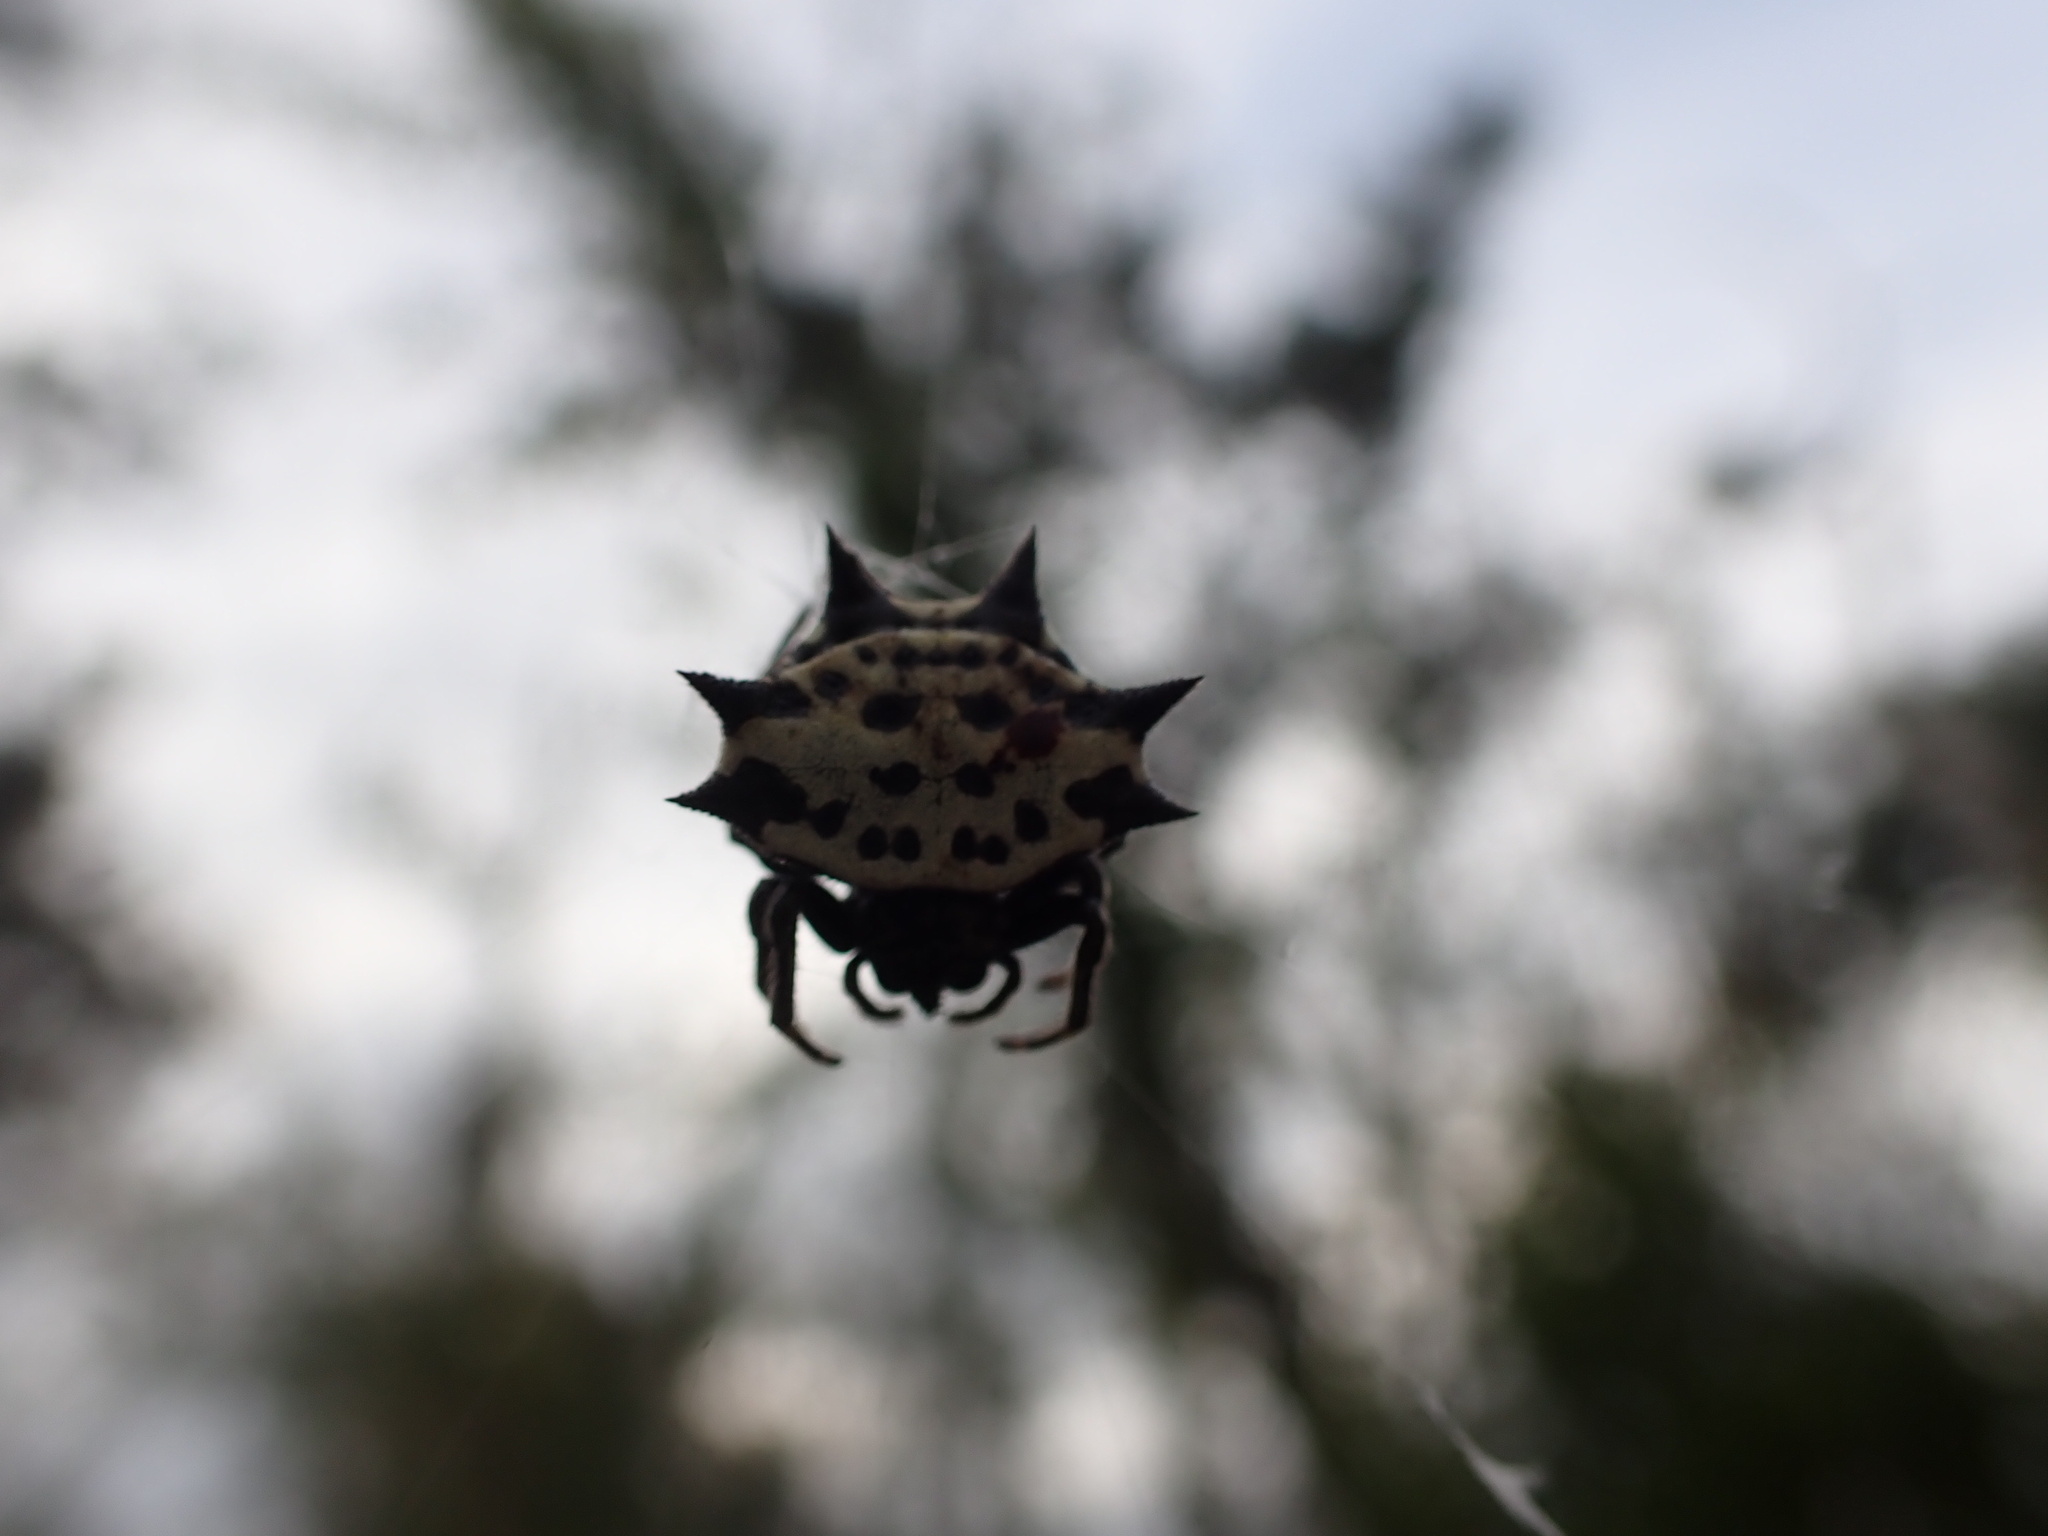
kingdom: Animalia
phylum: Arthropoda
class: Arachnida
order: Araneae
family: Araneidae
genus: Gasteracantha
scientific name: Gasteracantha cancriformis
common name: Orb weavers
